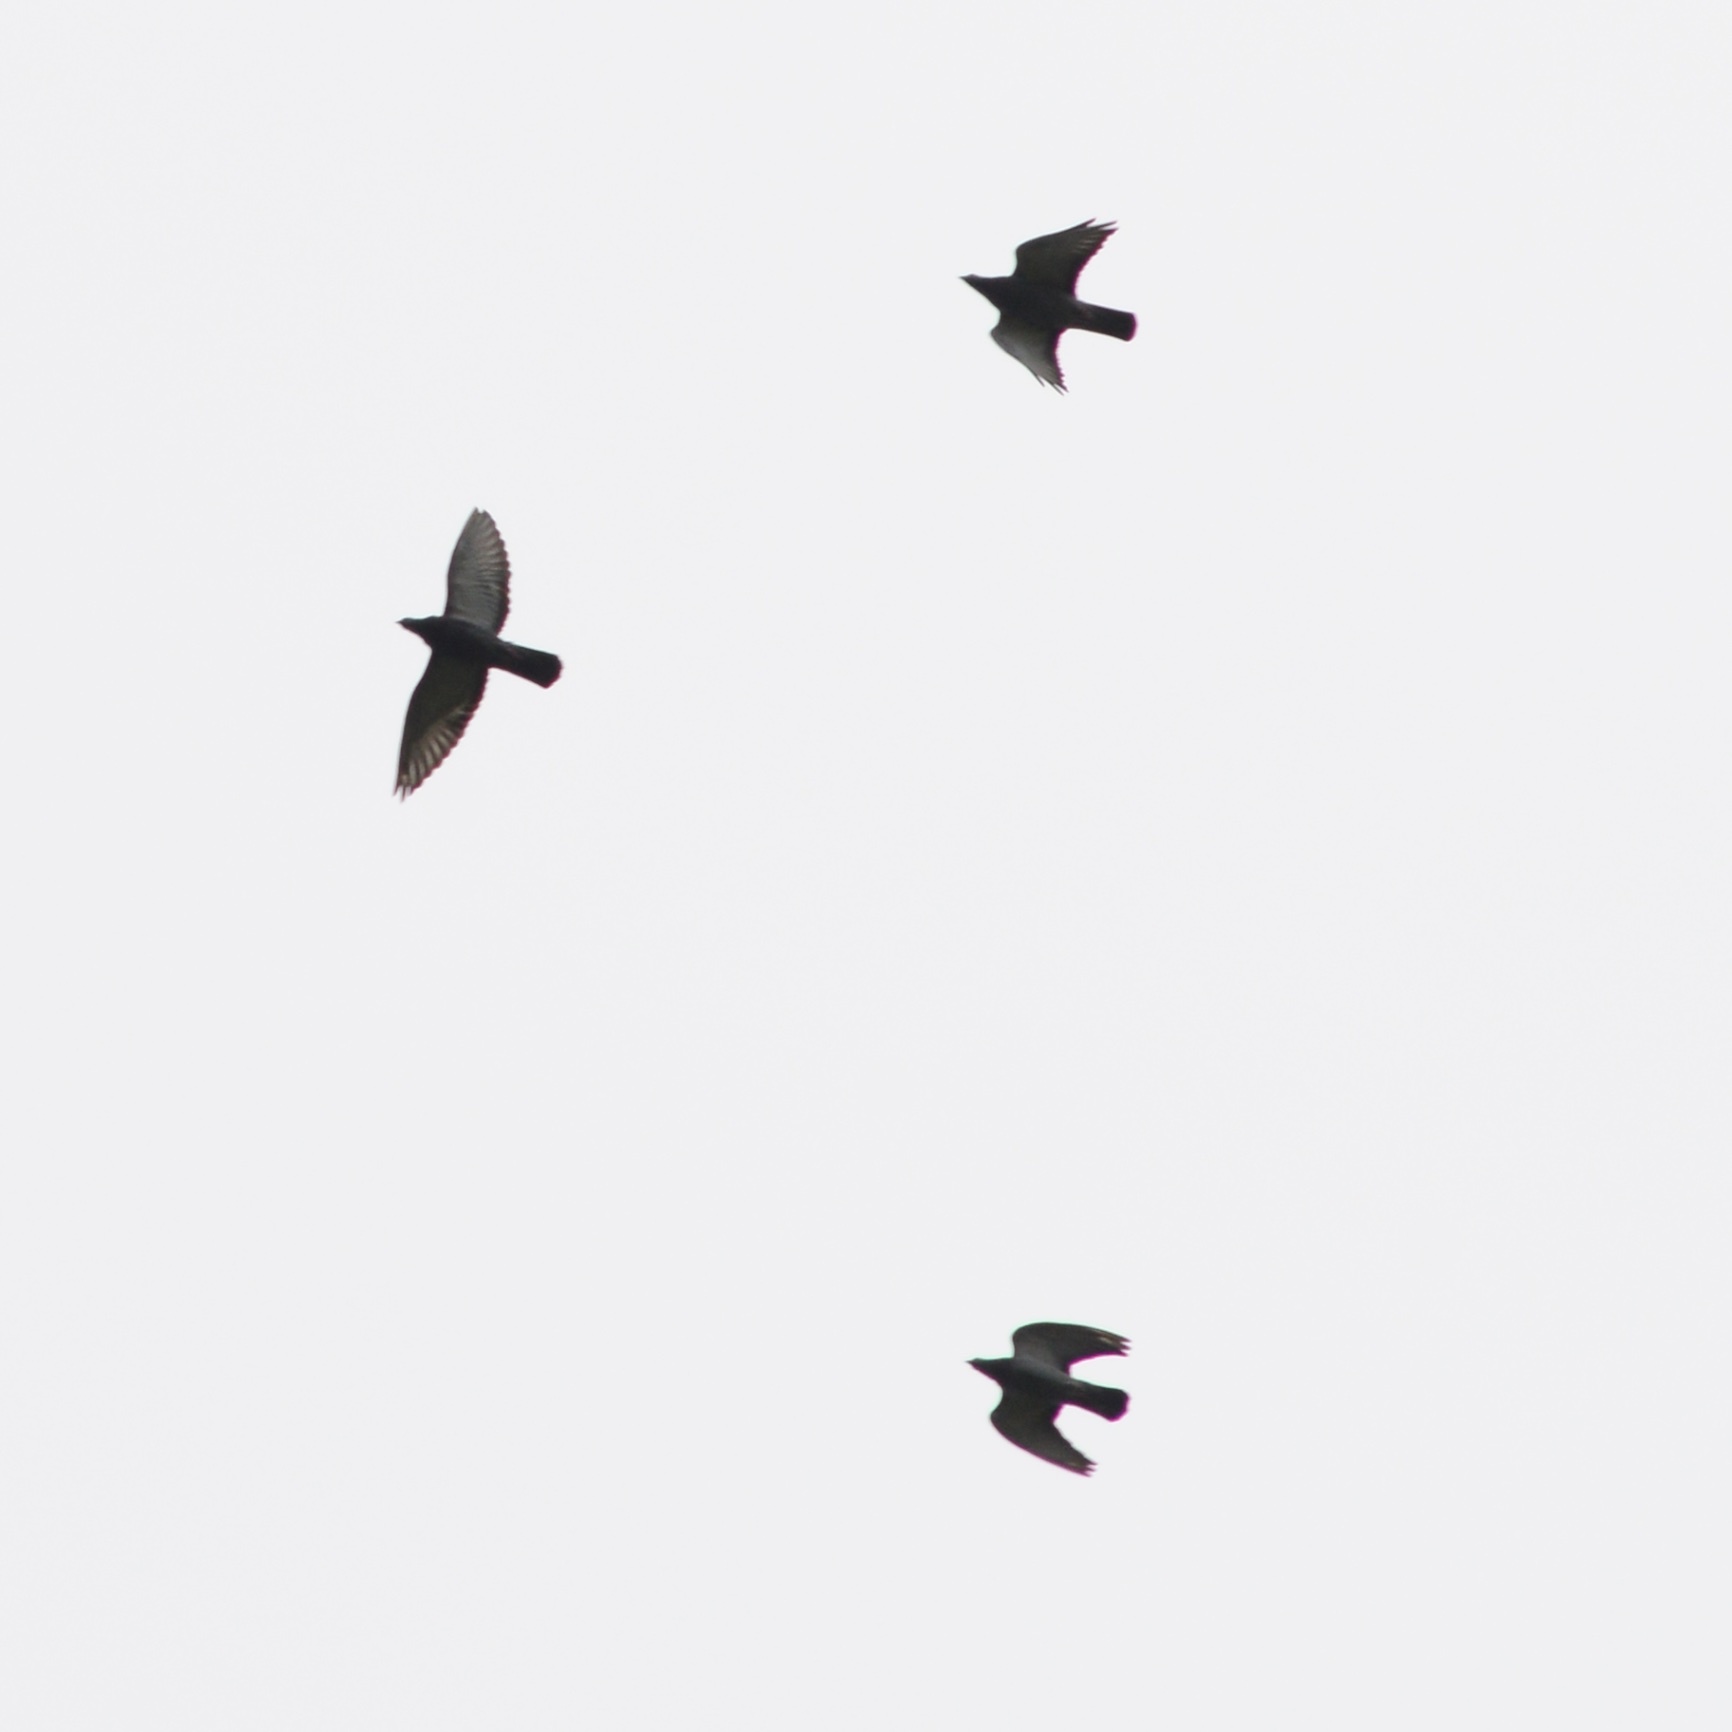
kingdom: Animalia
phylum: Chordata
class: Aves
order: Columbiformes
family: Columbidae
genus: Columba
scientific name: Columba livia
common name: Rock pigeon
